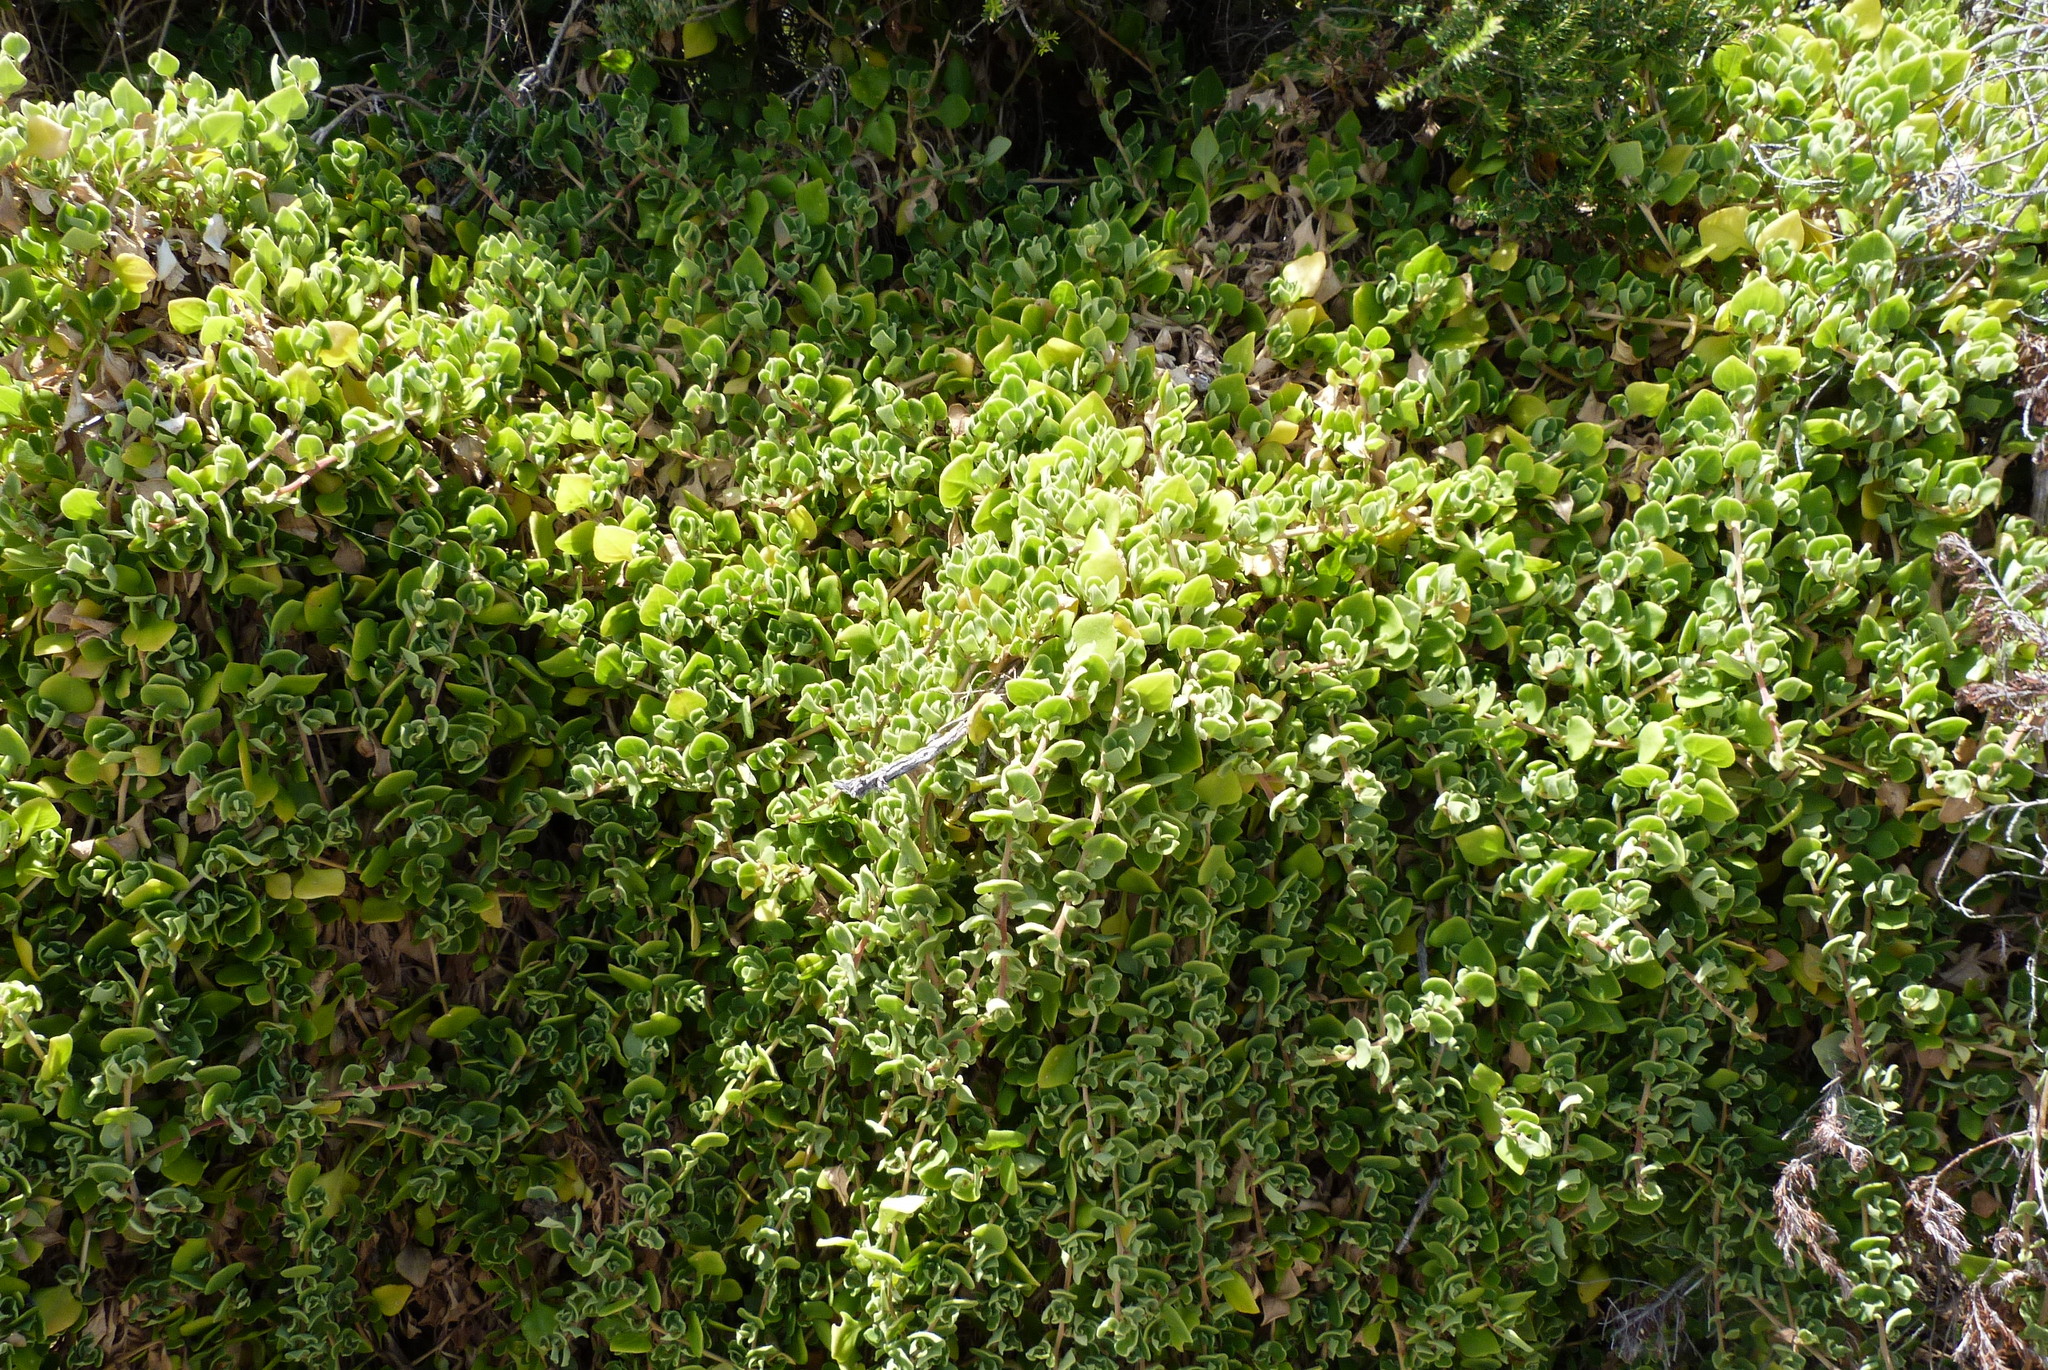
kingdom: Plantae
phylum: Tracheophyta
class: Magnoliopsida
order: Caryophyllales
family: Aizoaceae
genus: Tetragonia
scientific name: Tetragonia implexicoma
